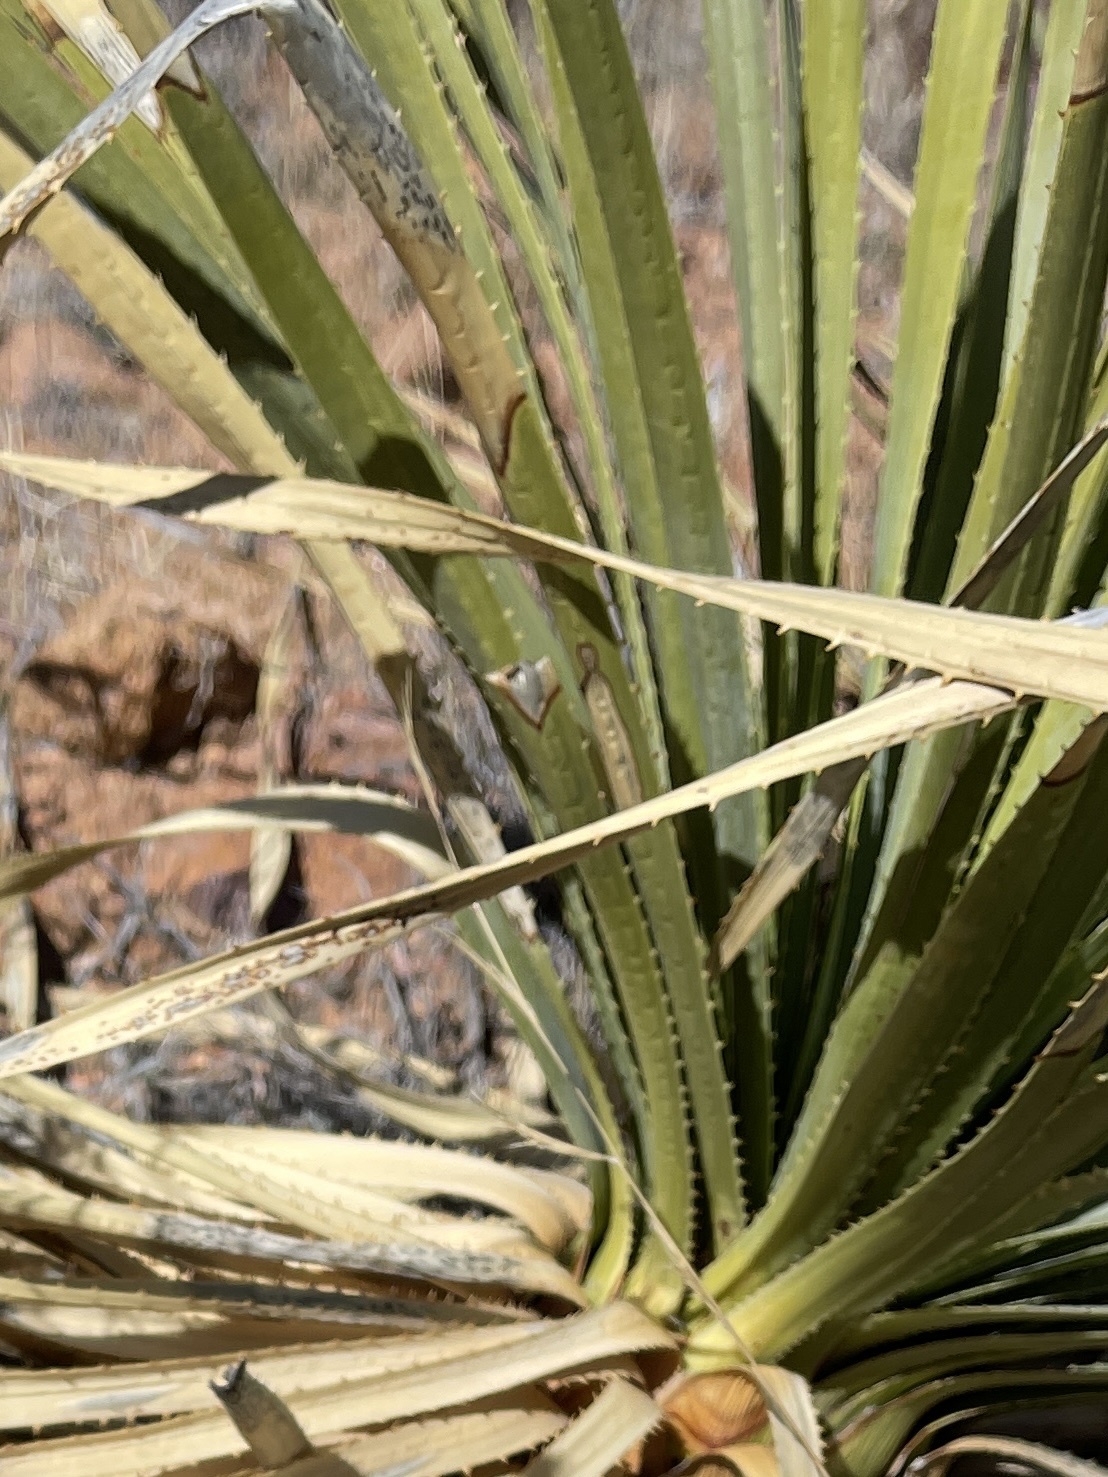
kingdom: Plantae
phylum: Tracheophyta
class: Liliopsida
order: Asparagales
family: Asparagaceae
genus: Dasylirion
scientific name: Dasylirion wheeleri
